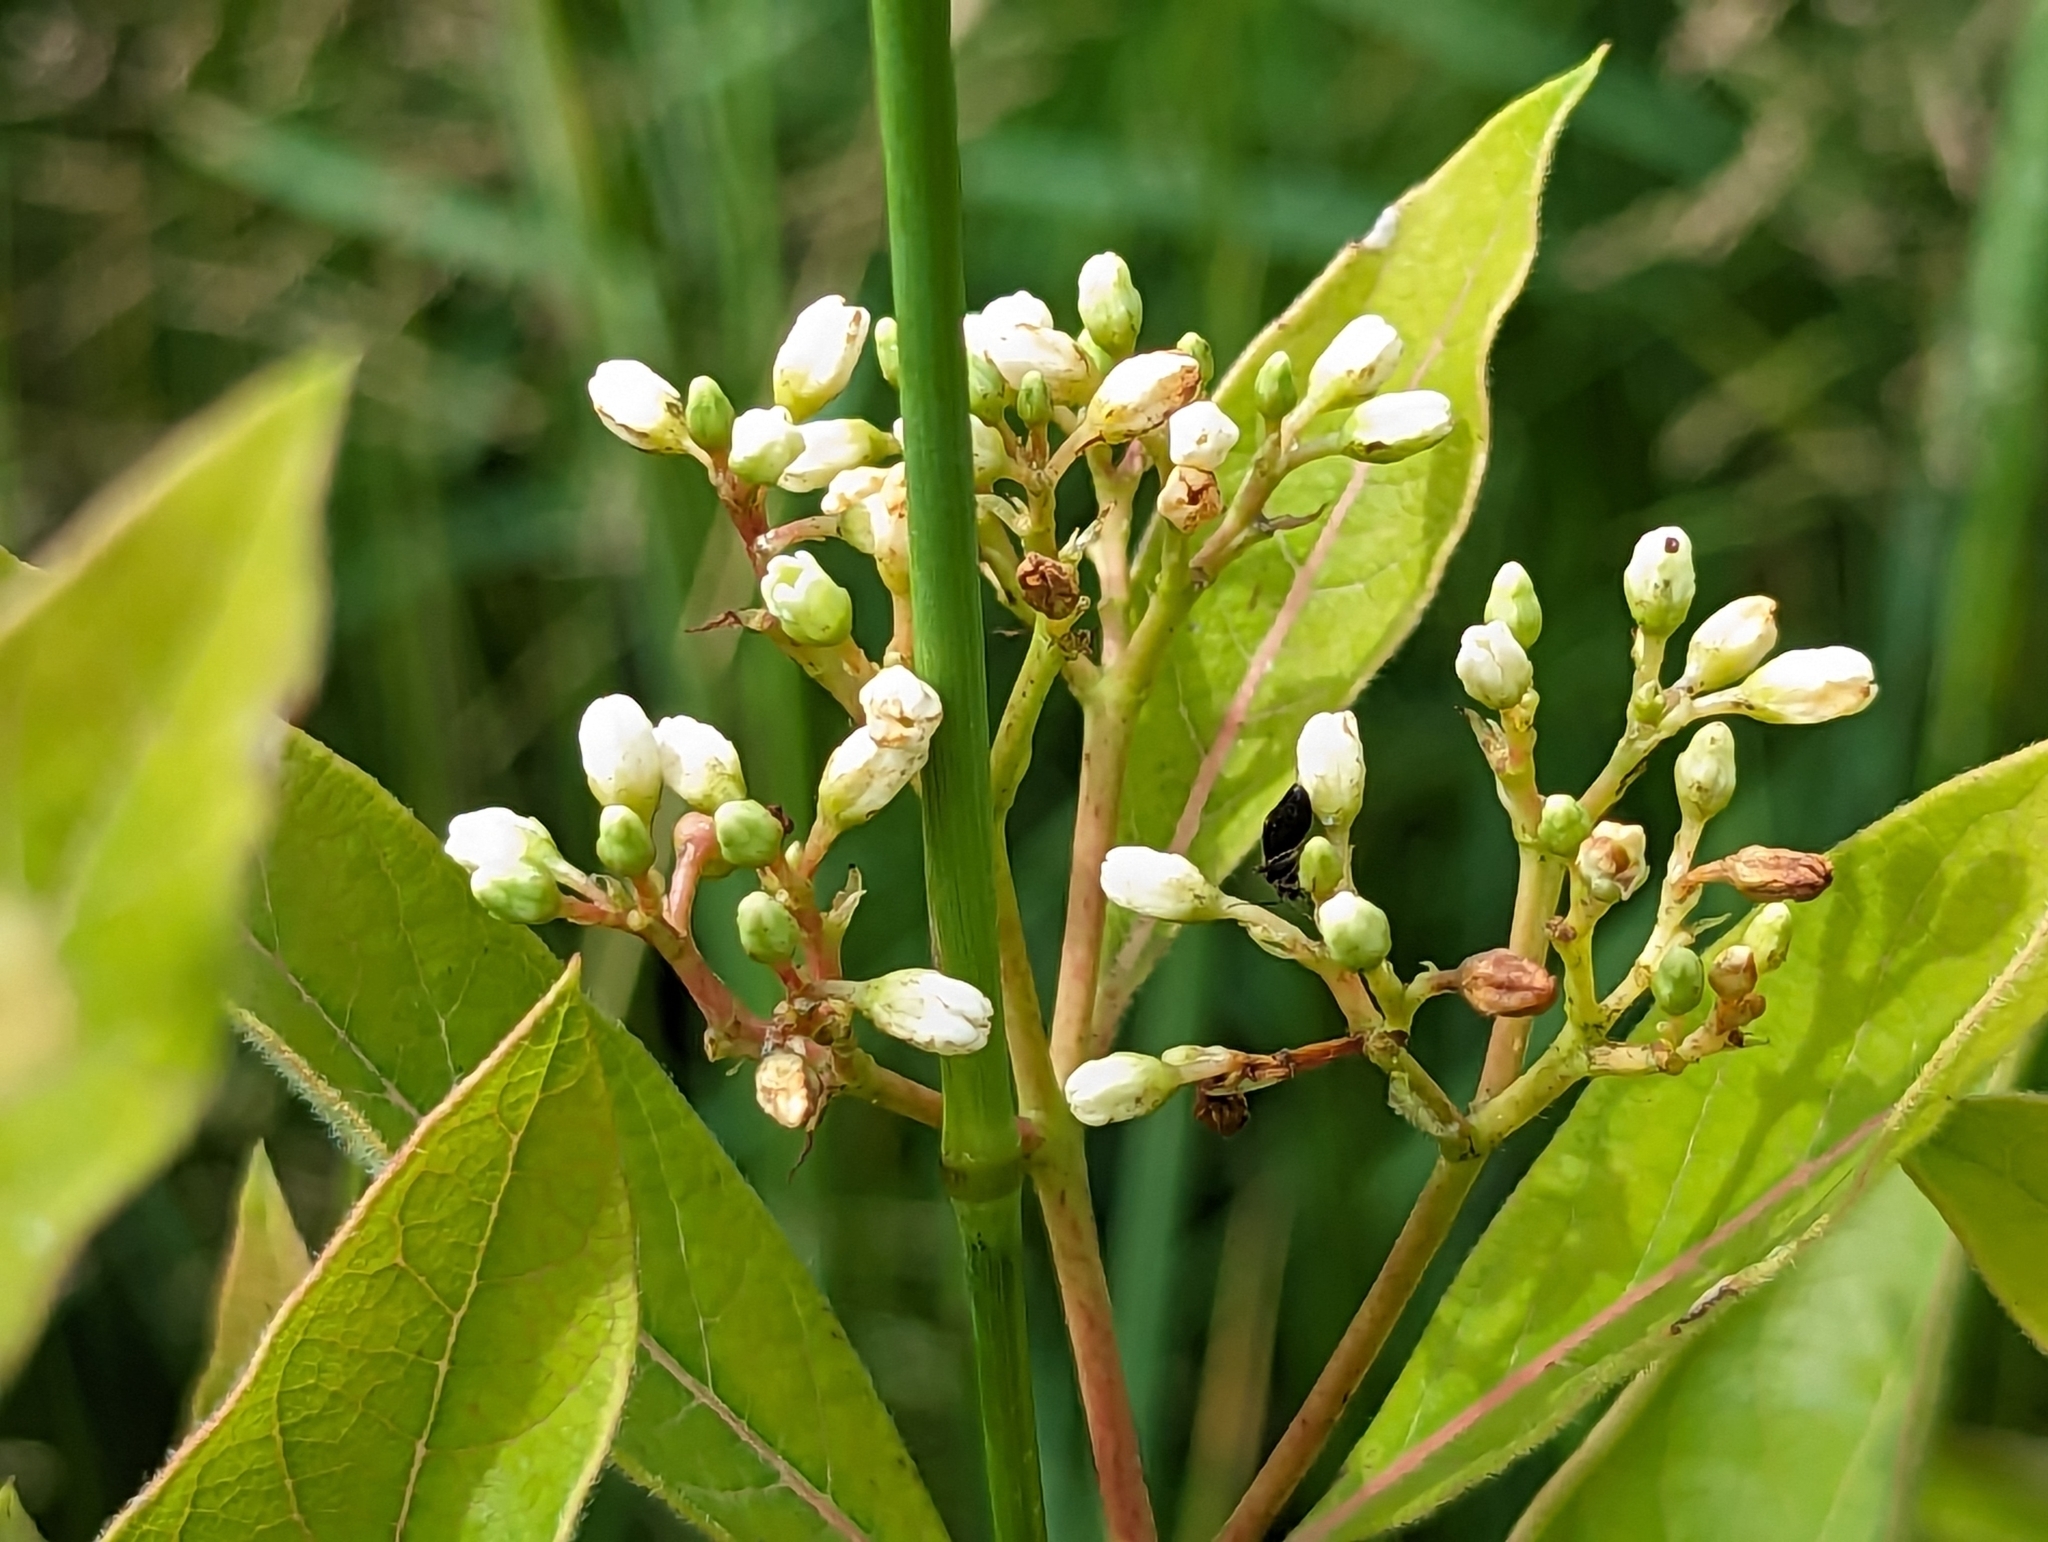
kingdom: Plantae
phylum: Tracheophyta
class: Magnoliopsida
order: Gentianales
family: Apocynaceae
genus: Apocynum
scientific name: Apocynum cannabinum
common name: Hemp dogbane
